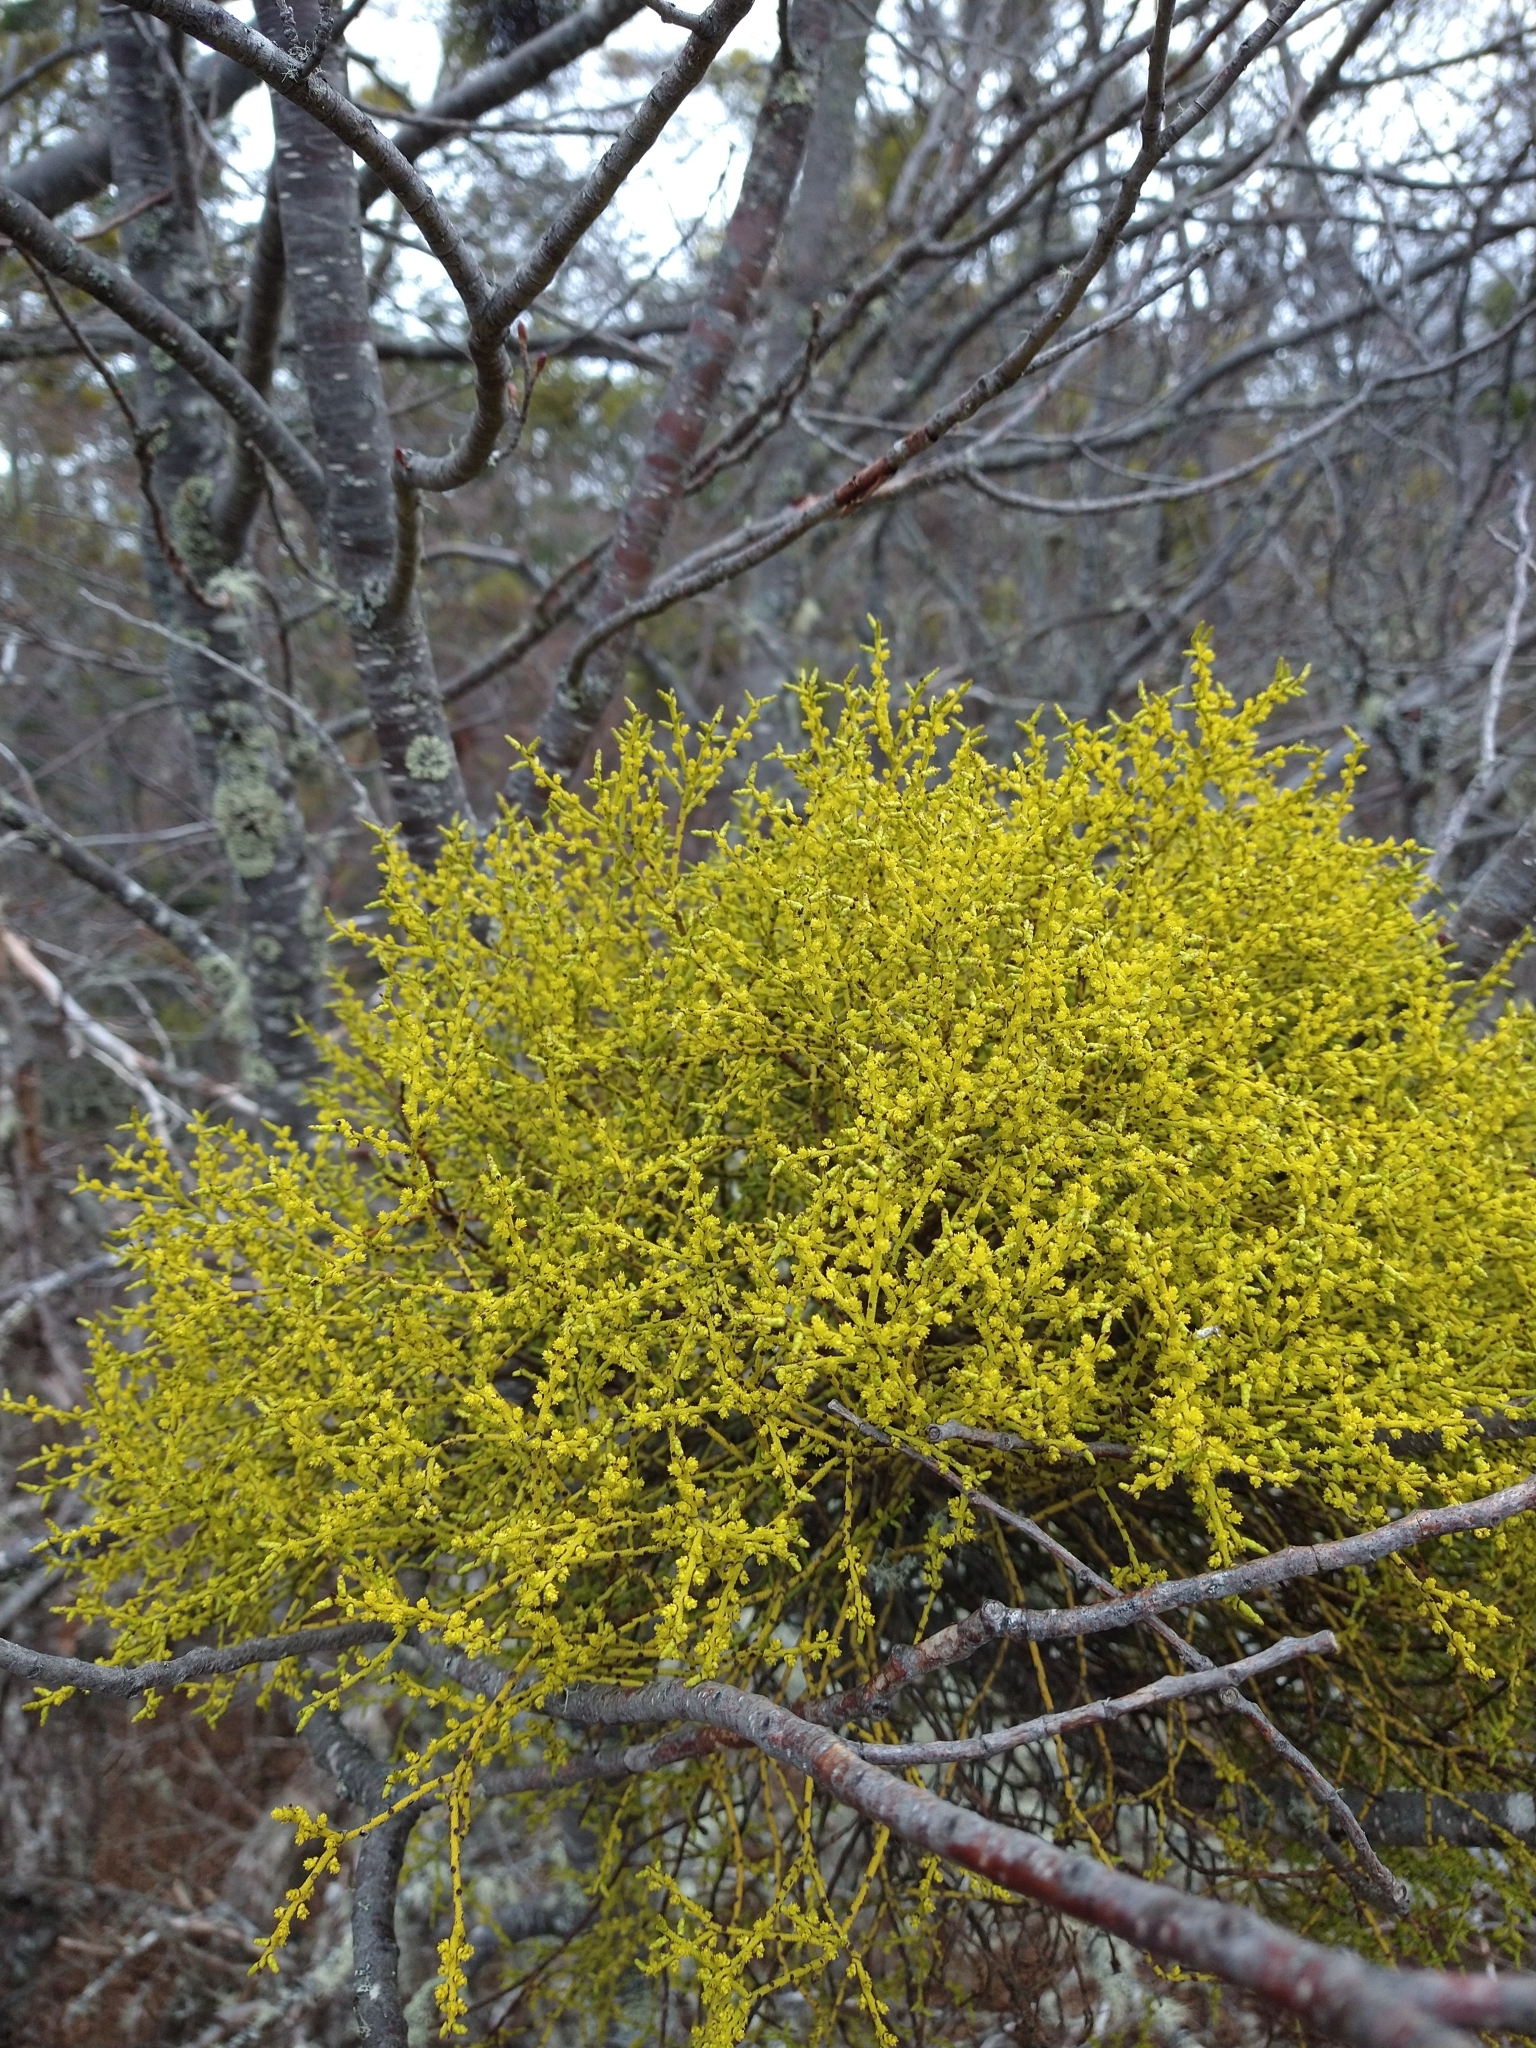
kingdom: Plantae
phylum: Tracheophyta
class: Magnoliopsida
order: Santalales
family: Misodendraceae
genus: Misodendrum
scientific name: Misodendrum punctulatum
